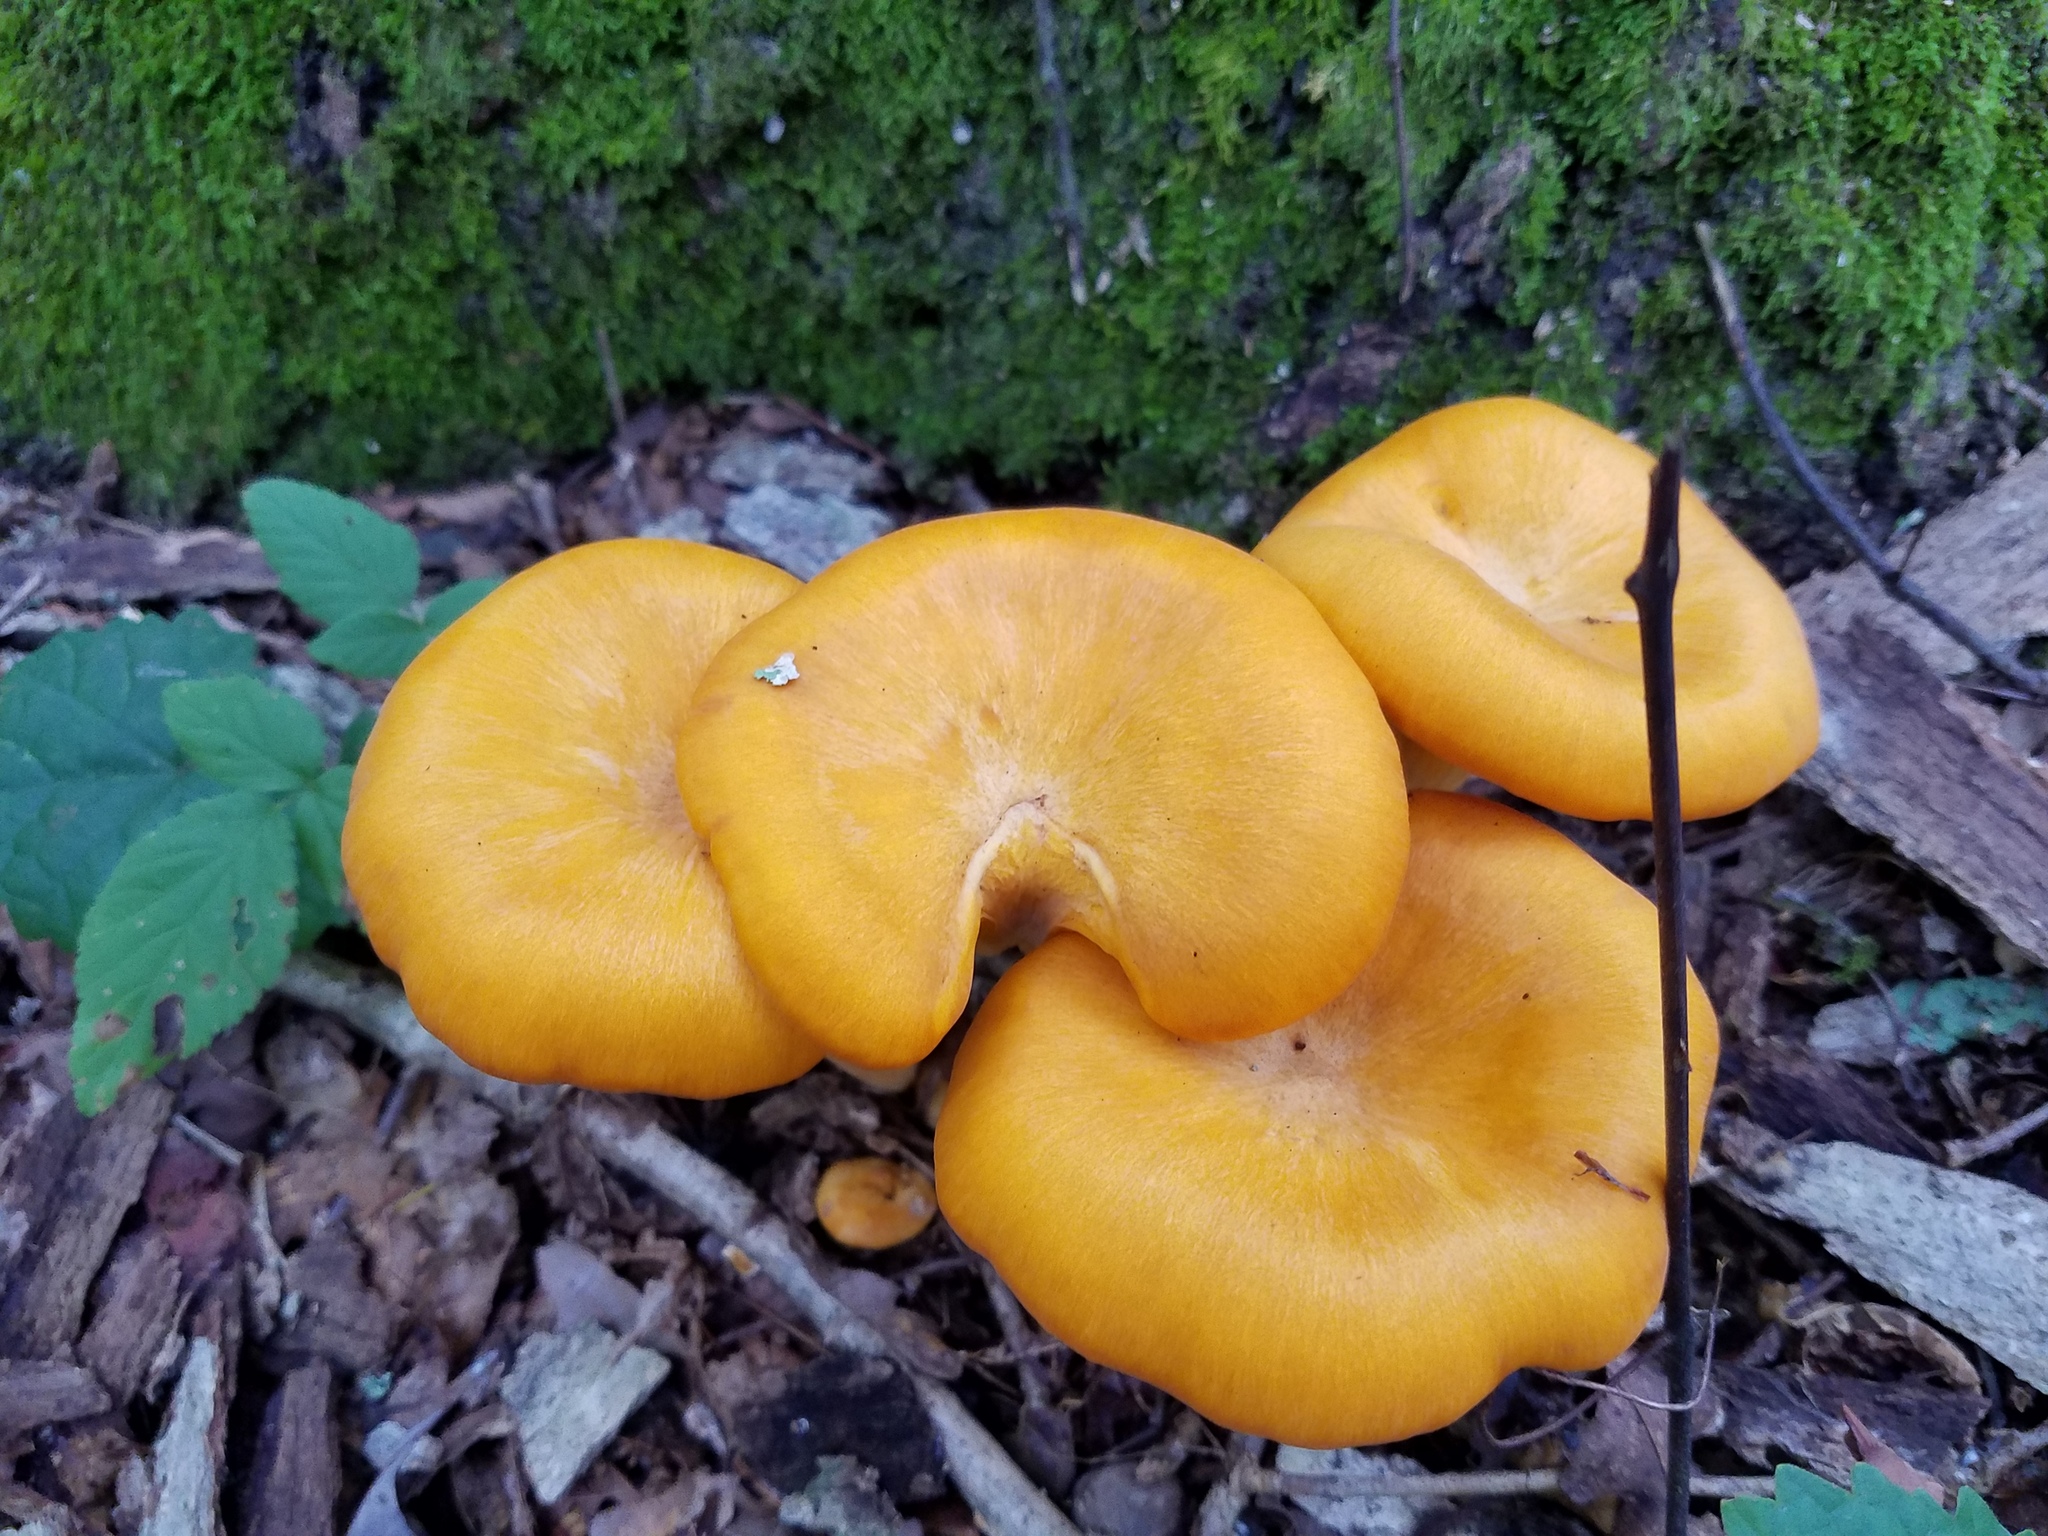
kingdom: Fungi
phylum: Basidiomycota
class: Agaricomycetes
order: Agaricales
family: Omphalotaceae
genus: Omphalotus
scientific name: Omphalotus illudens
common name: Jack o lantern
